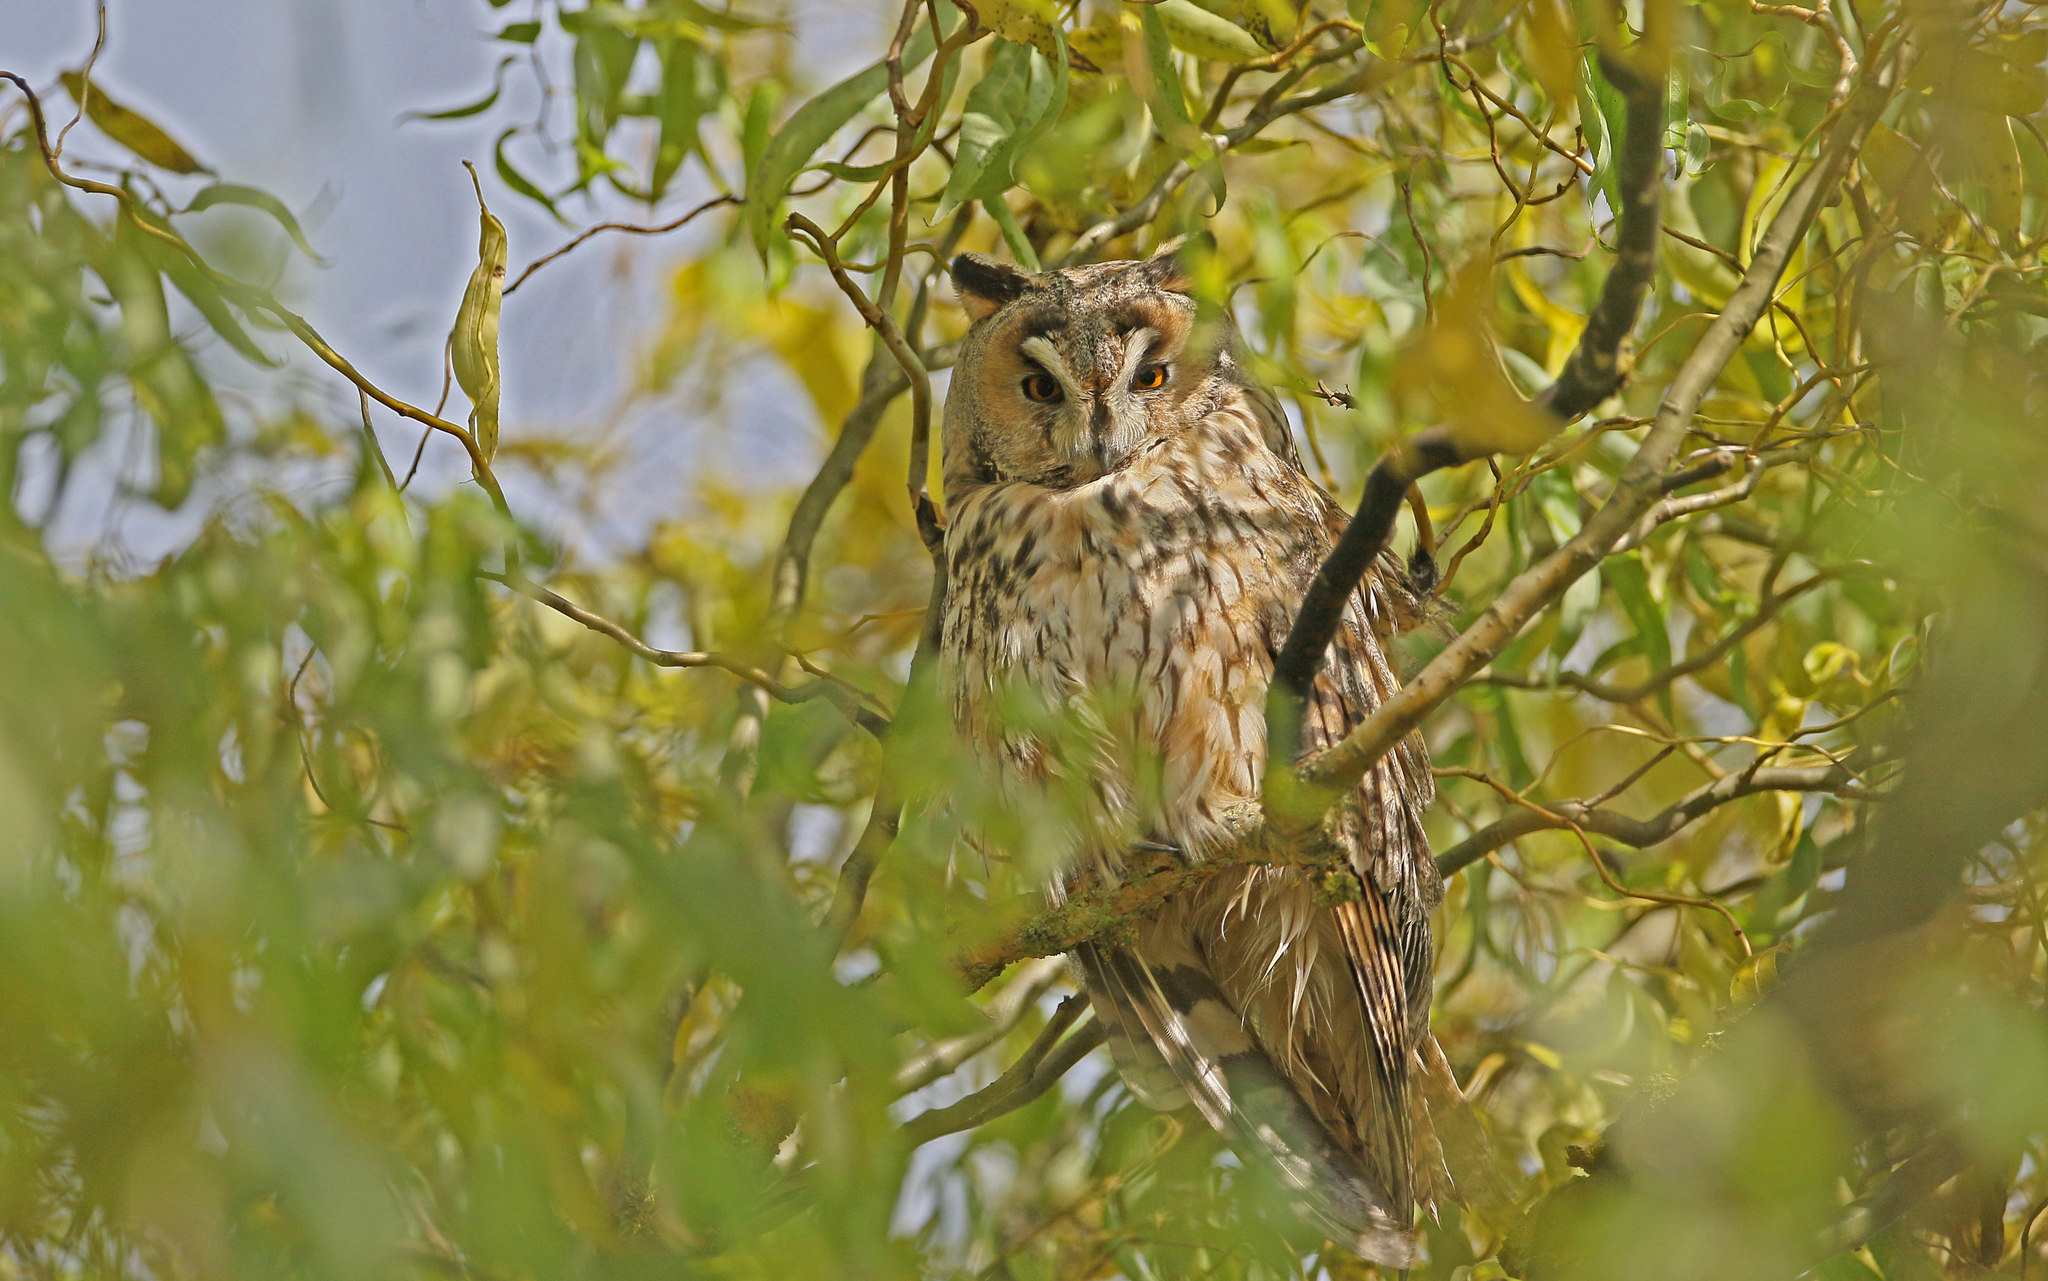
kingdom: Animalia
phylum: Chordata
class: Aves
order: Strigiformes
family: Strigidae
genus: Asio
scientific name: Asio otus
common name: Long-eared owl
